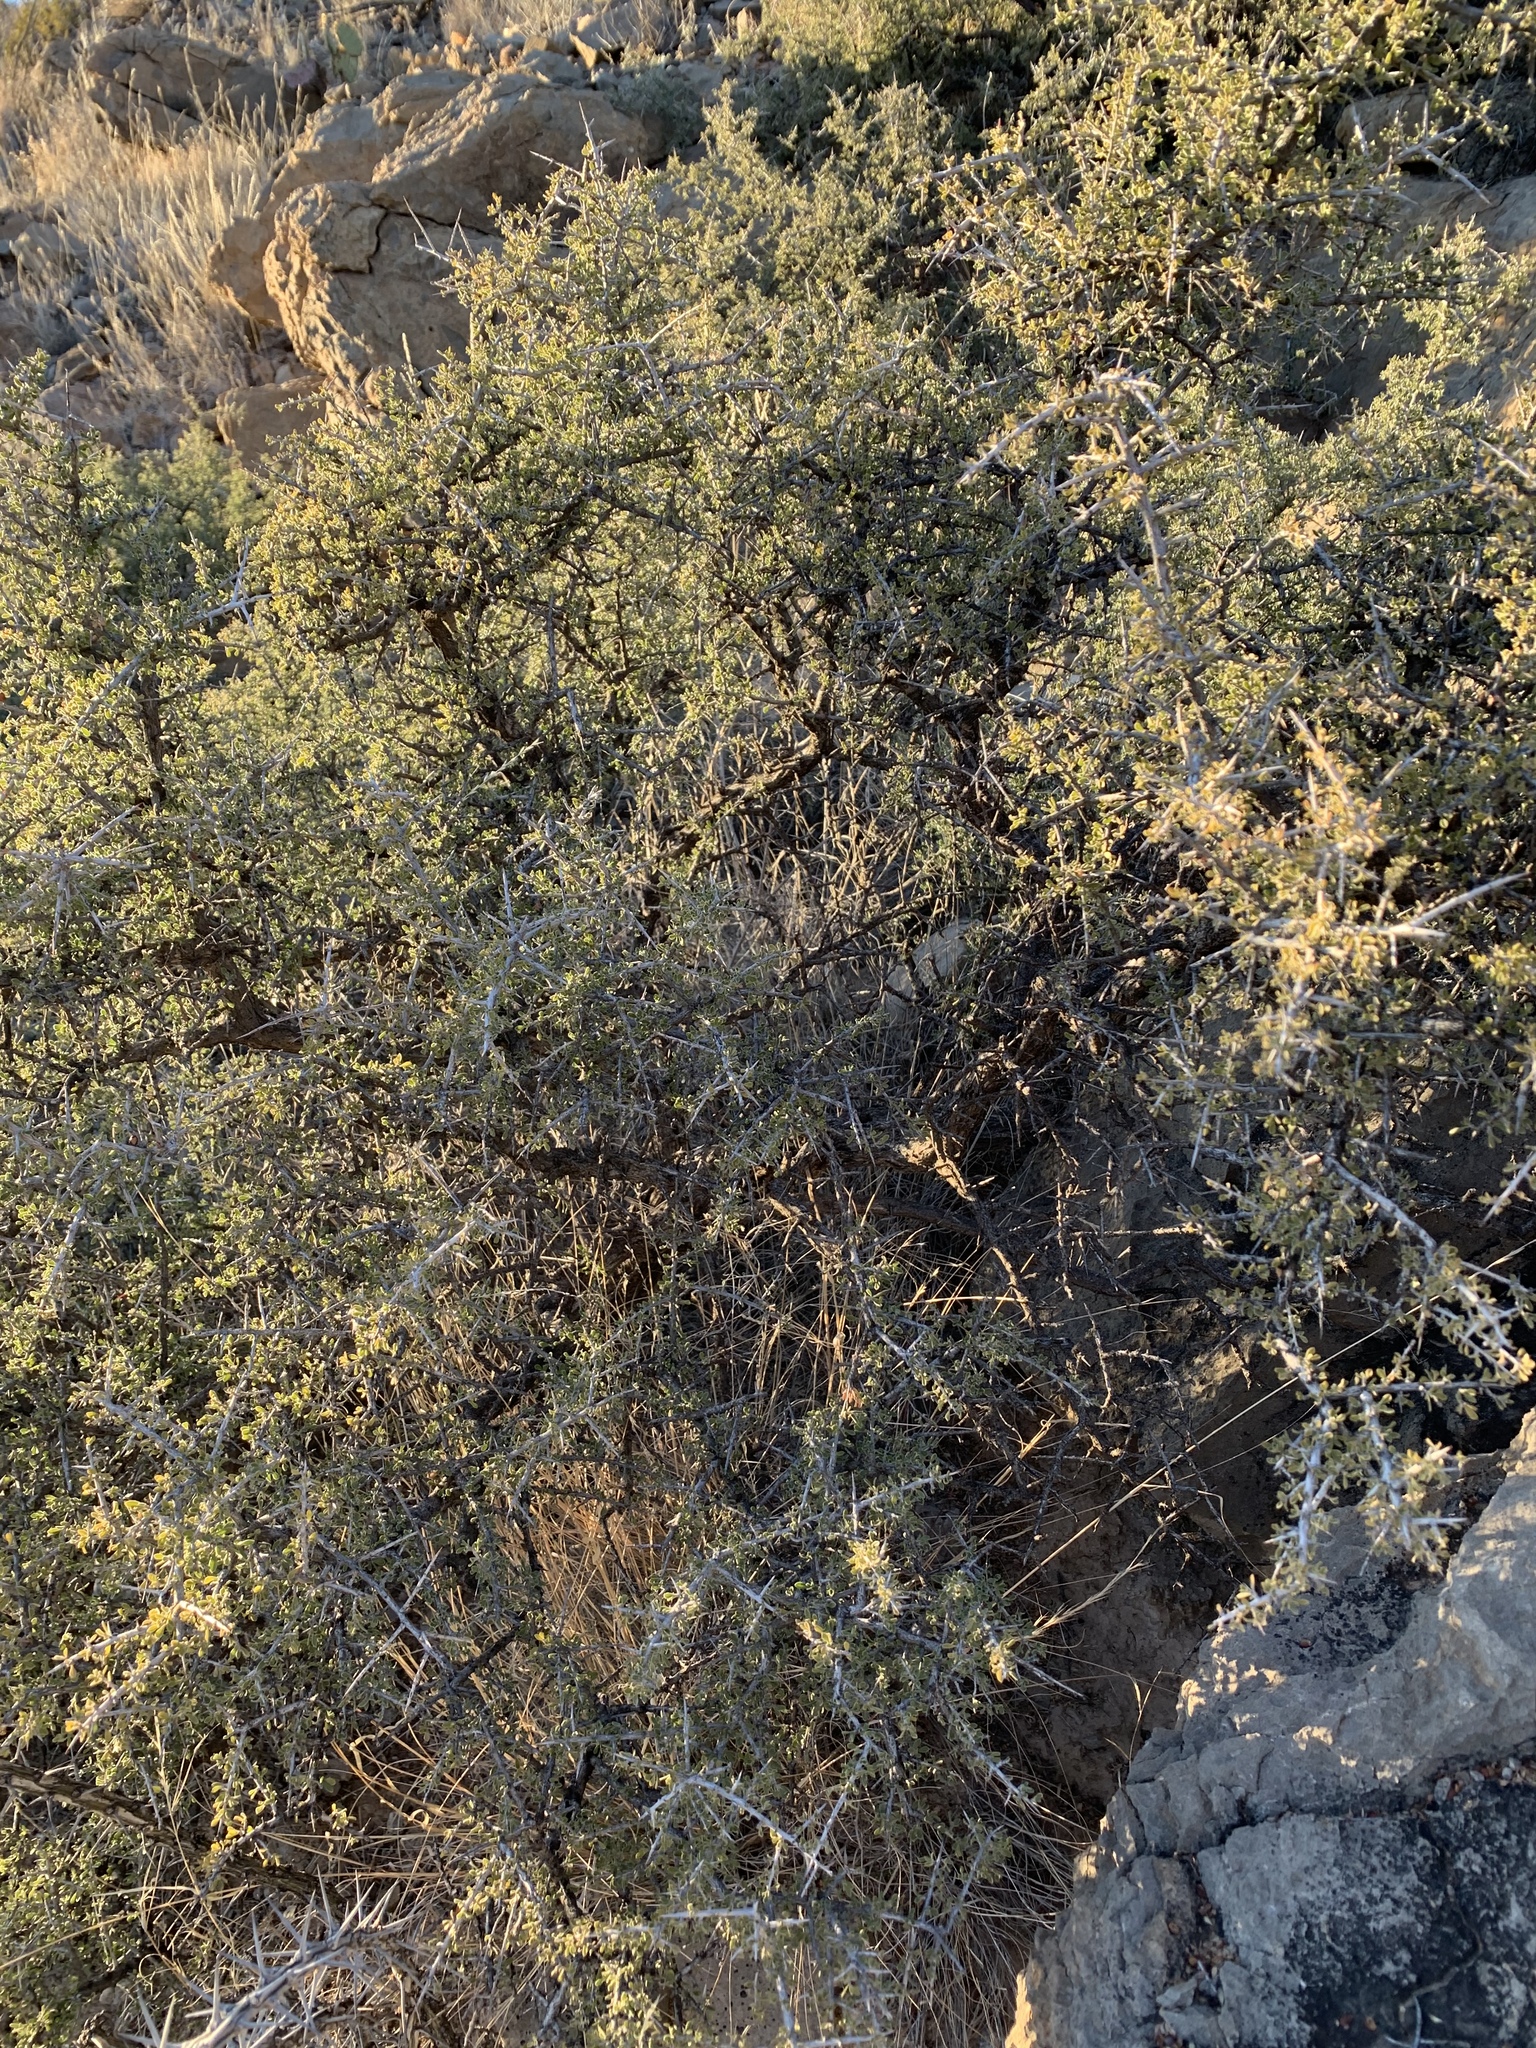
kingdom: Plantae
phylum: Tracheophyta
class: Magnoliopsida
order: Rosales
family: Rhamnaceae
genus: Condalia
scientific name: Condalia warnockii
